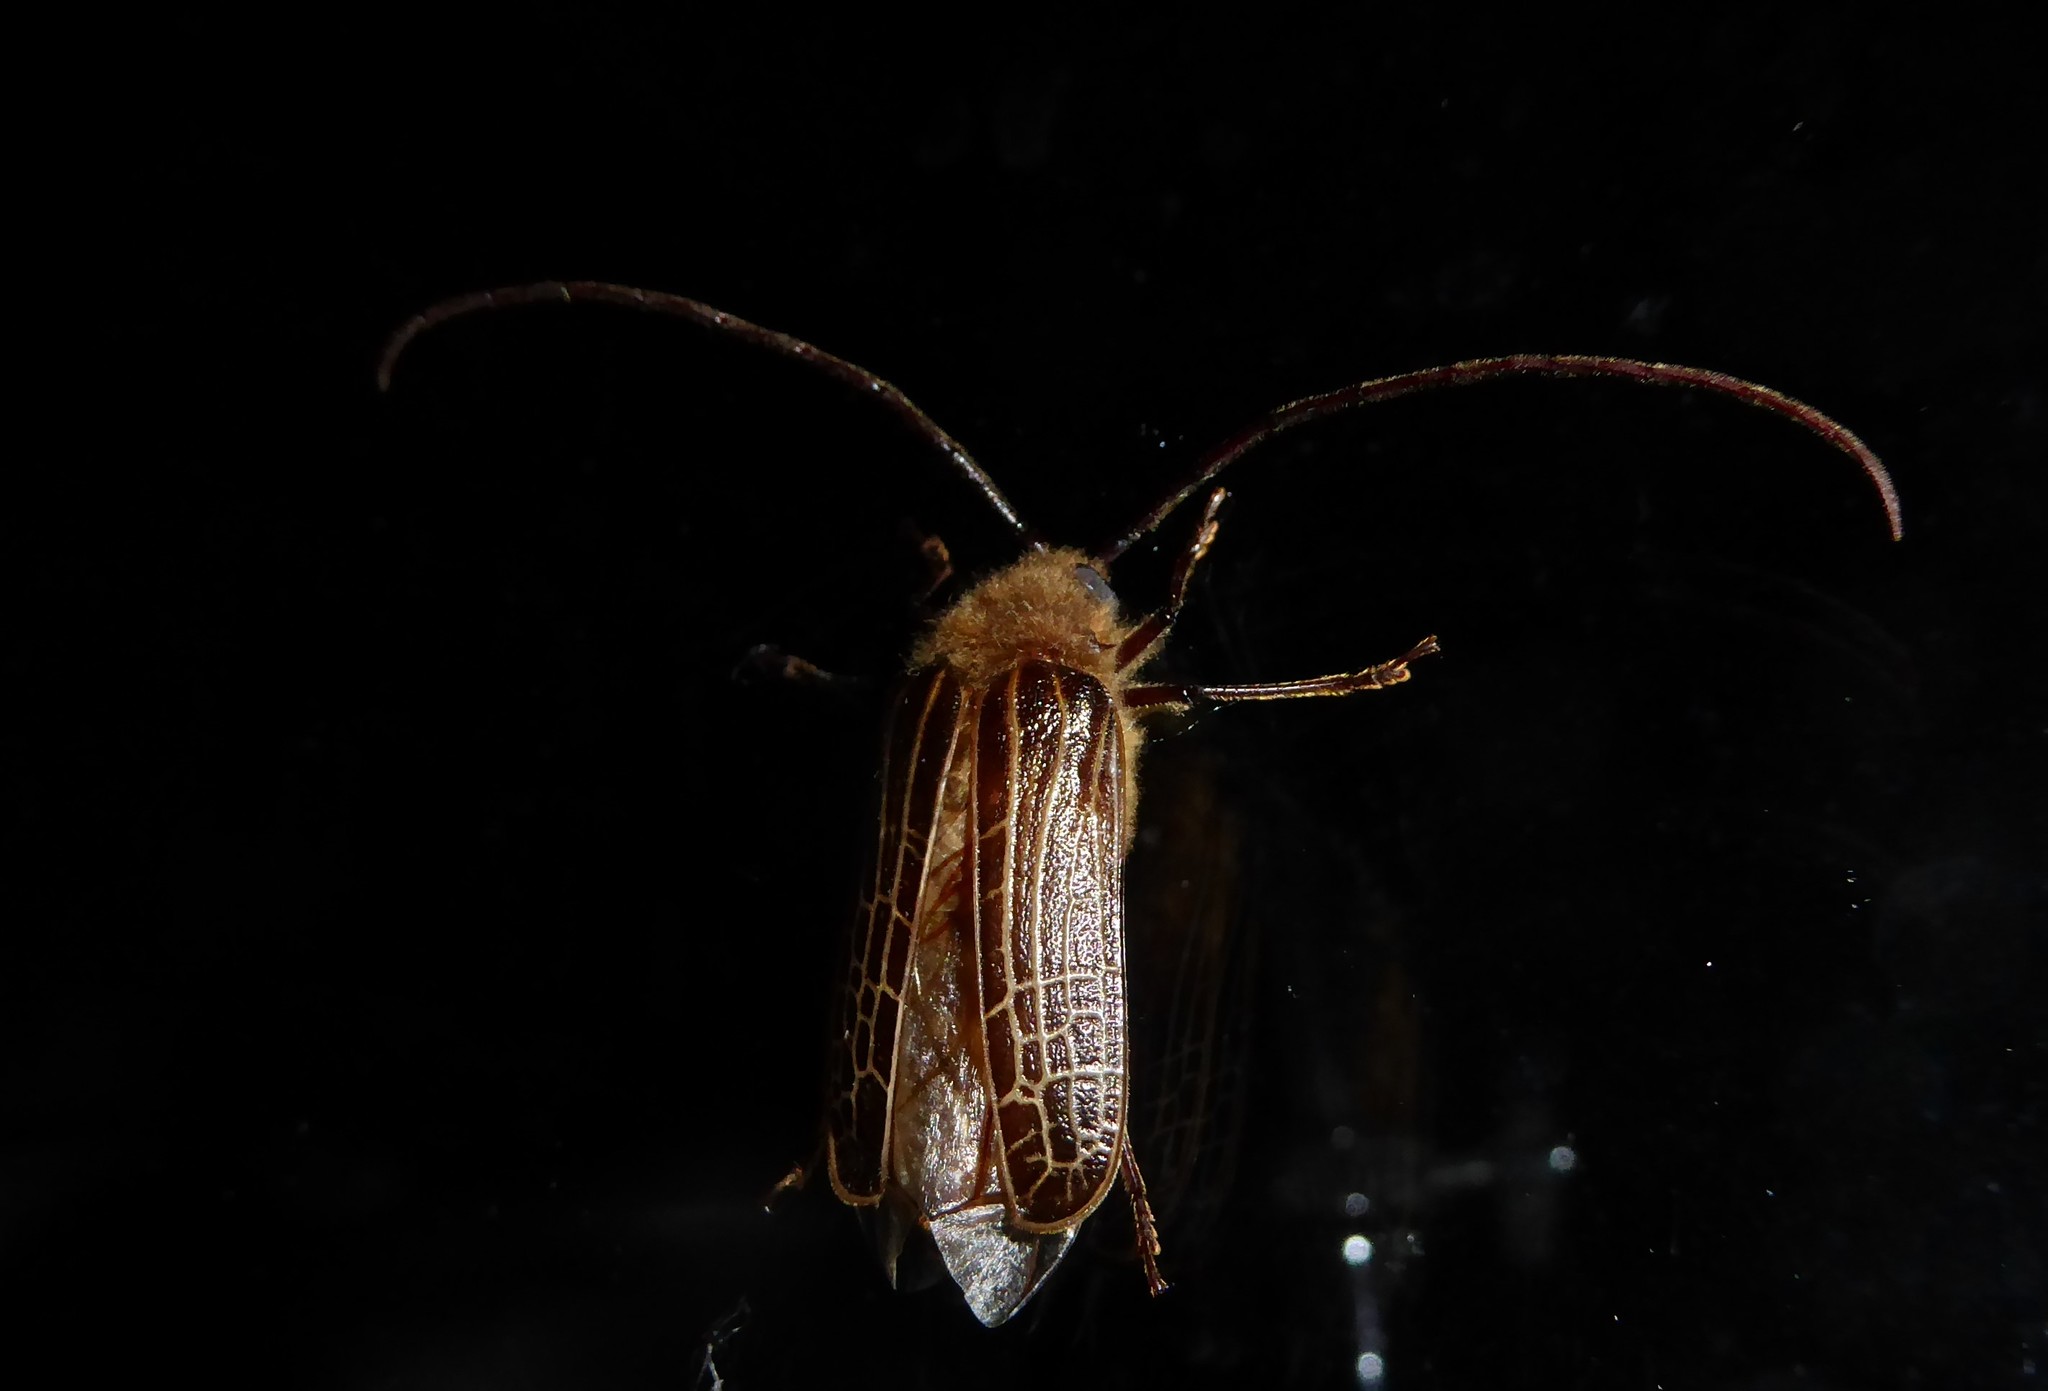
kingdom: Animalia
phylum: Arthropoda
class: Insecta
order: Coleoptera
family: Cerambycidae
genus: Prionoplus
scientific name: Prionoplus reticularis
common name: Huhu beetle
